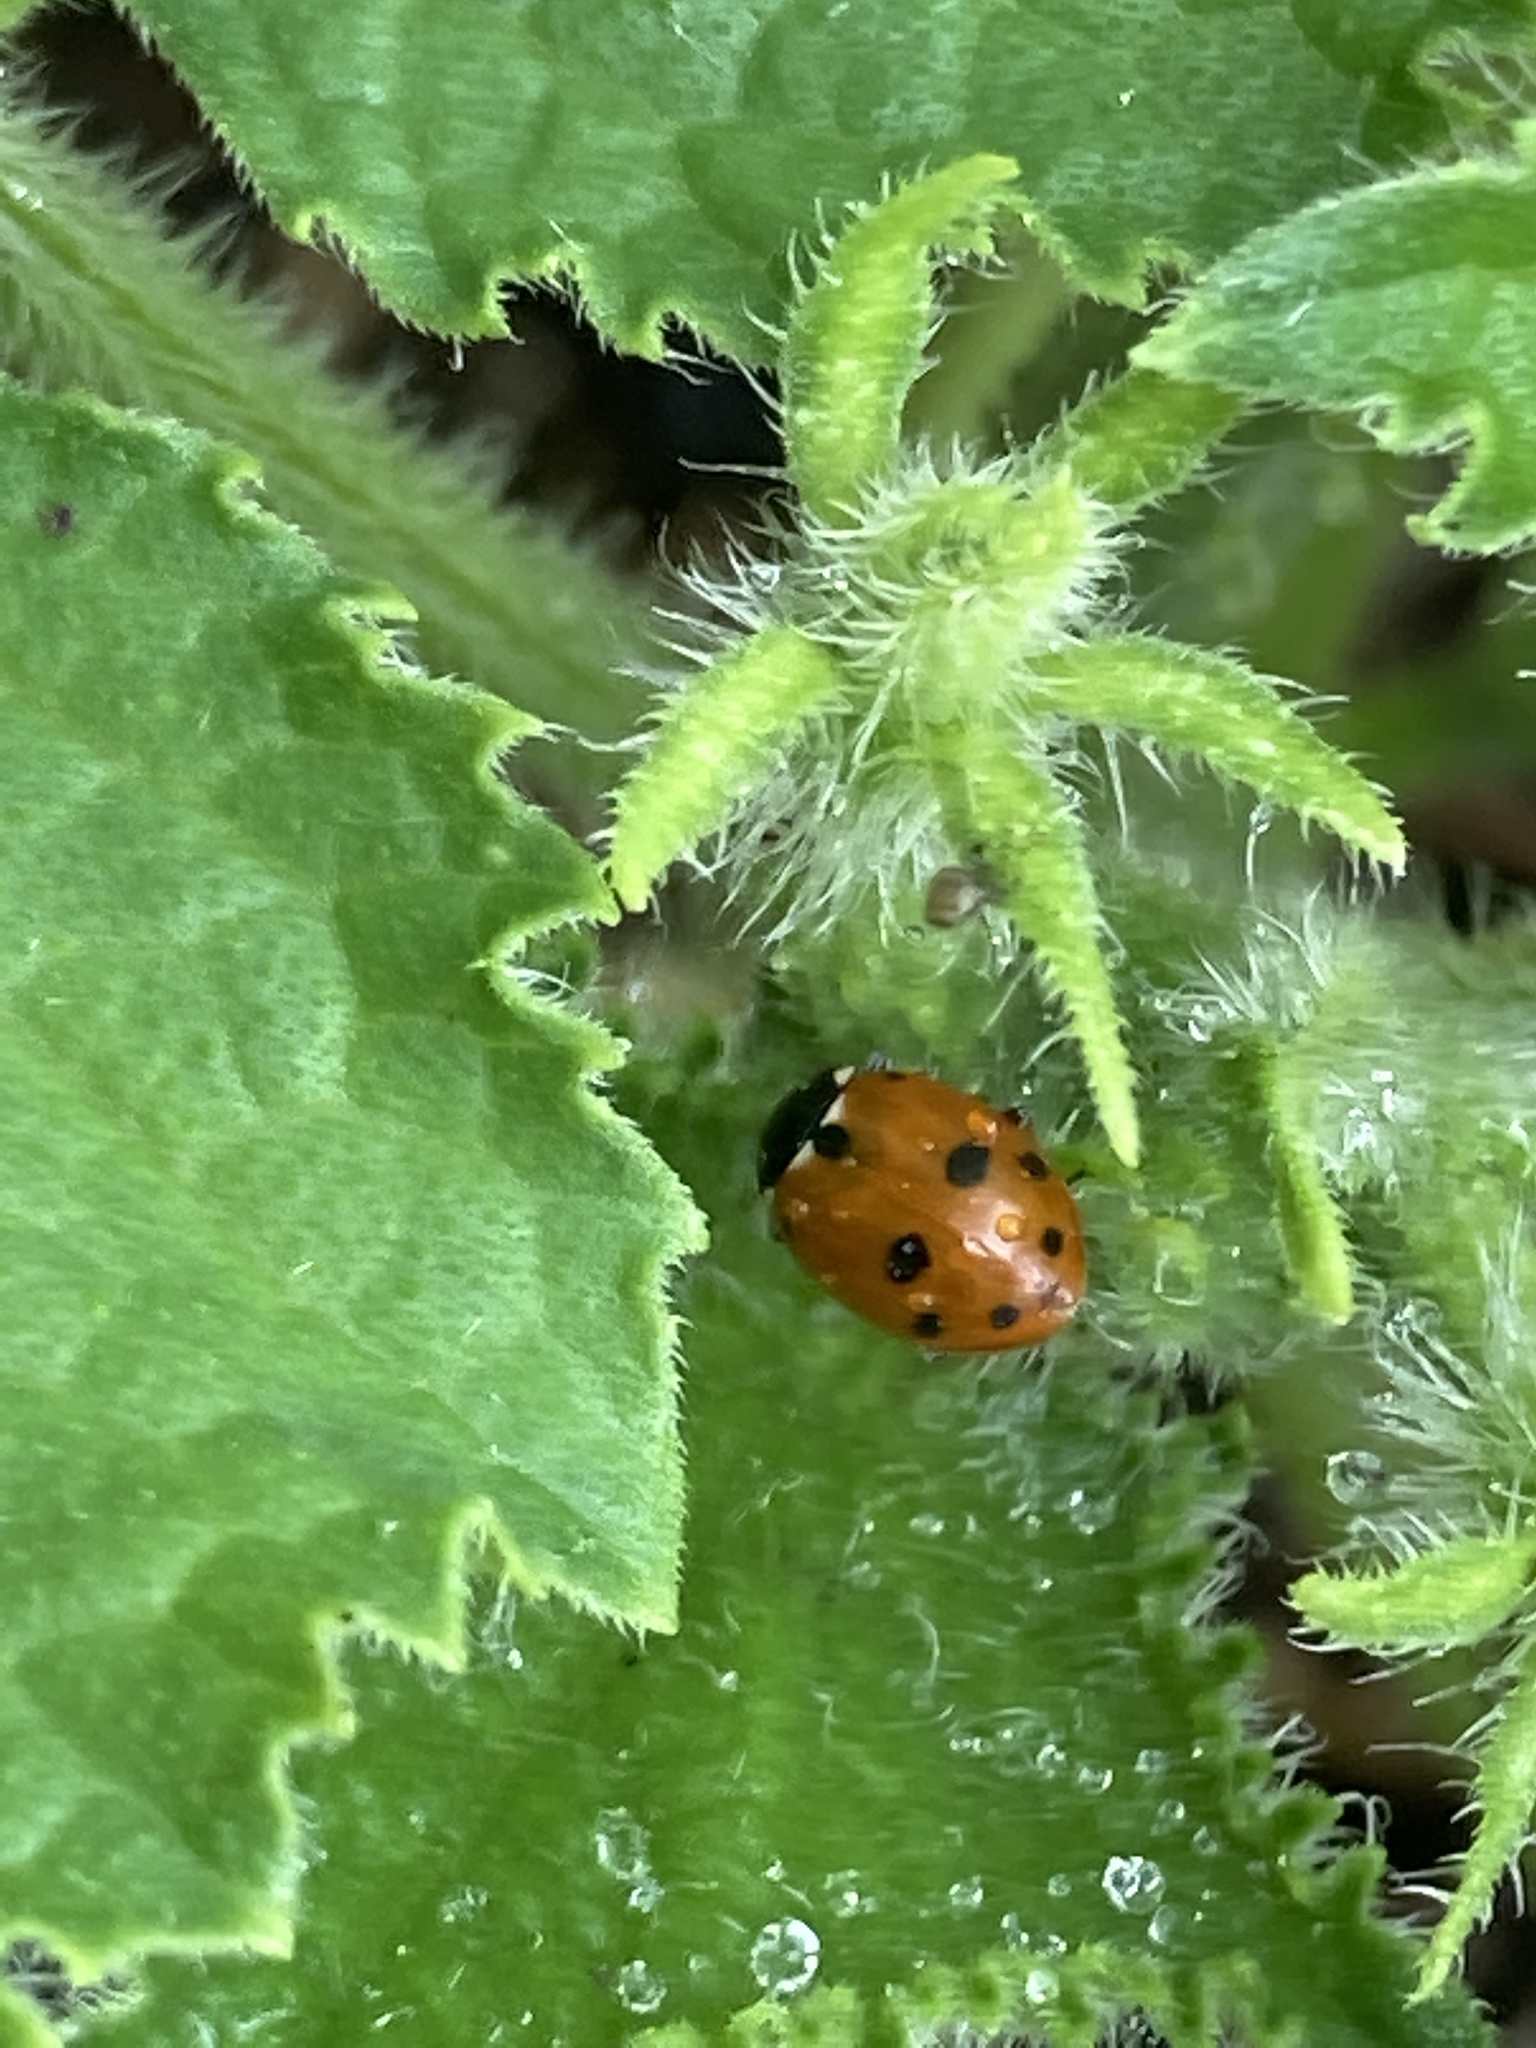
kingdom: Animalia
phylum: Arthropoda
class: Insecta
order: Coleoptera
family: Coccinellidae
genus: Hippodamia
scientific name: Hippodamia variegata
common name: Ladybird beetle
